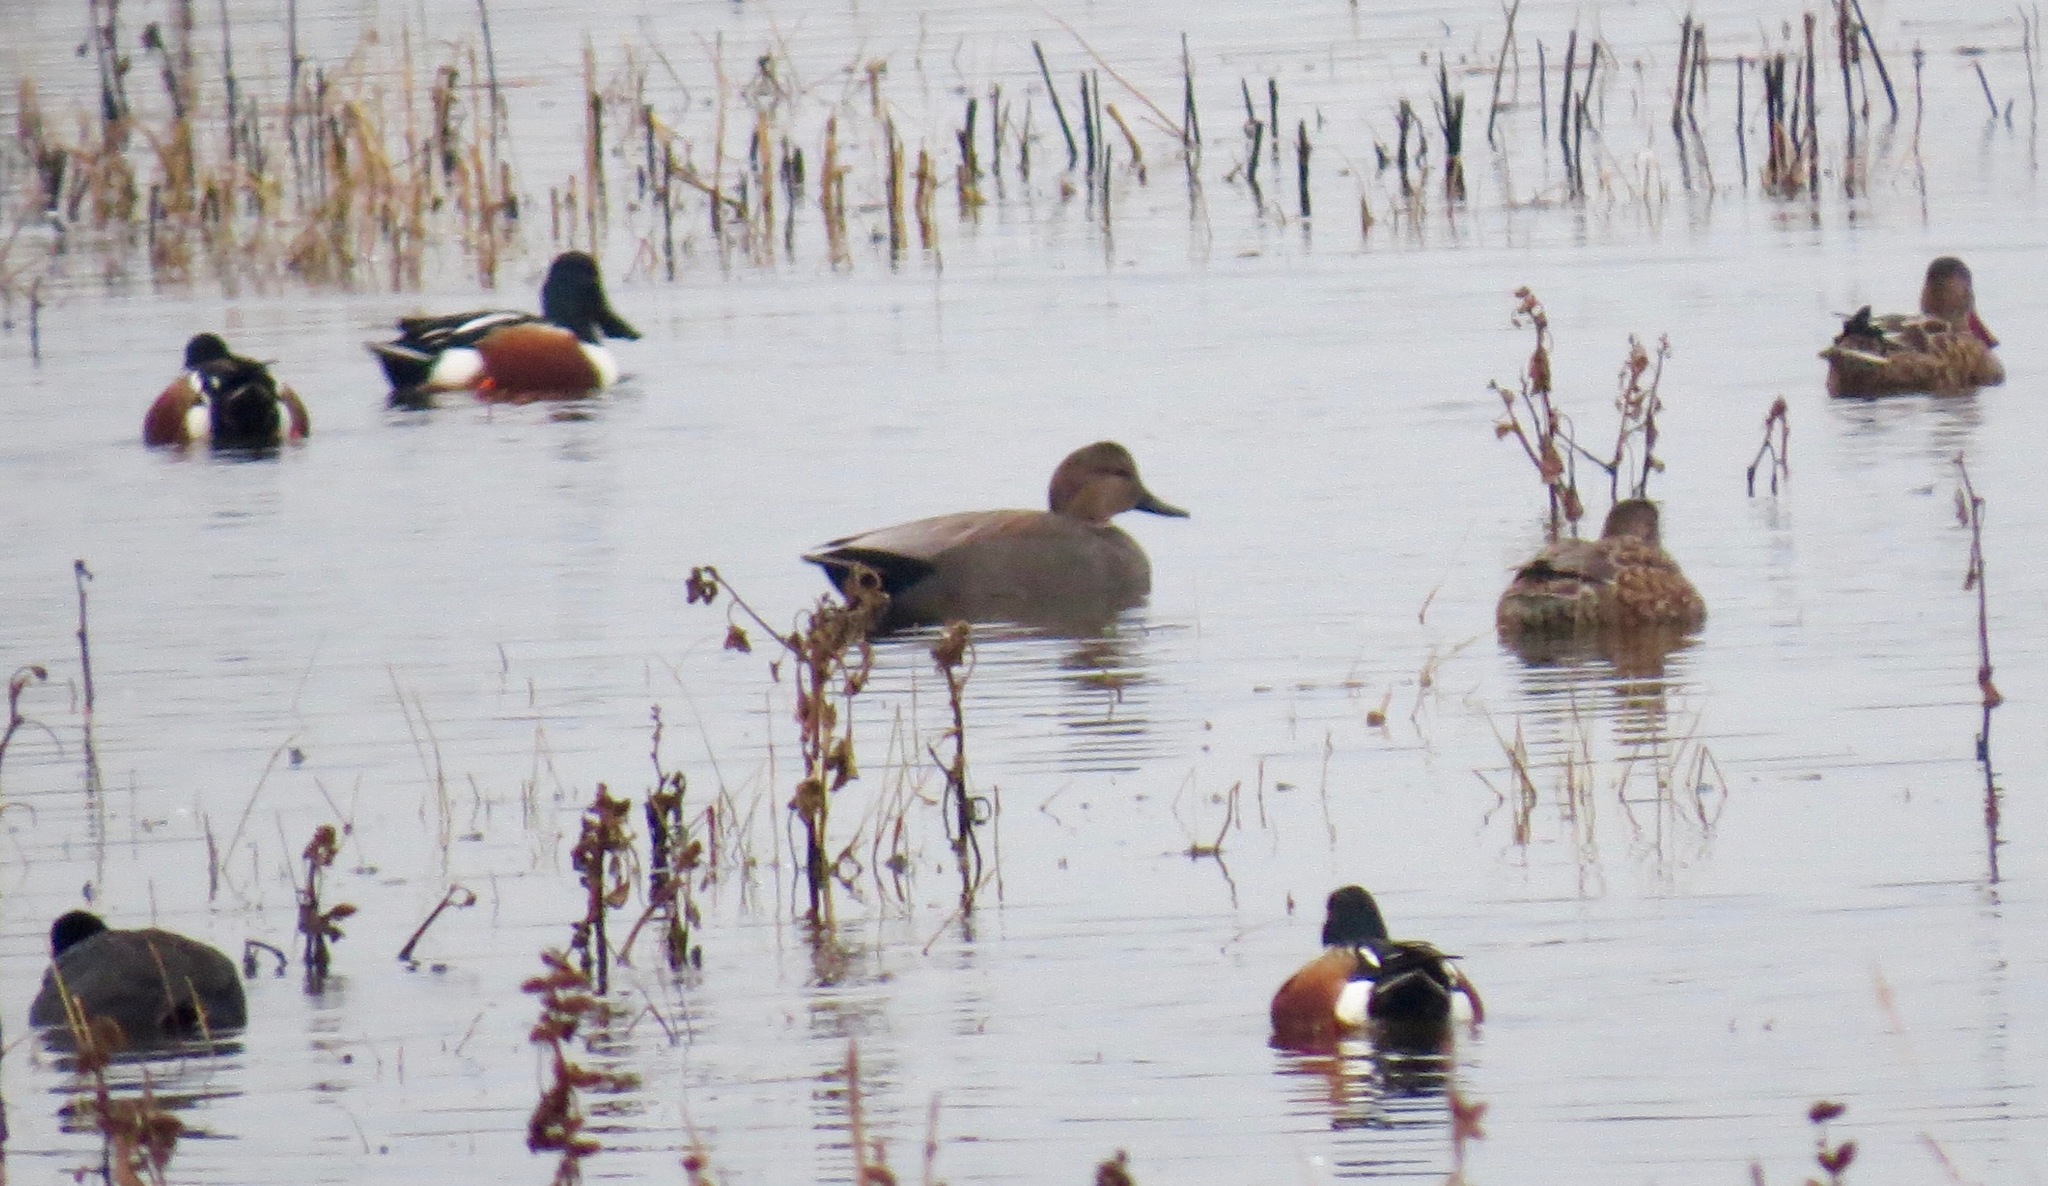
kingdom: Animalia
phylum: Chordata
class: Aves
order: Anseriformes
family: Anatidae
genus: Mareca
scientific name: Mareca strepera
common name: Gadwall
